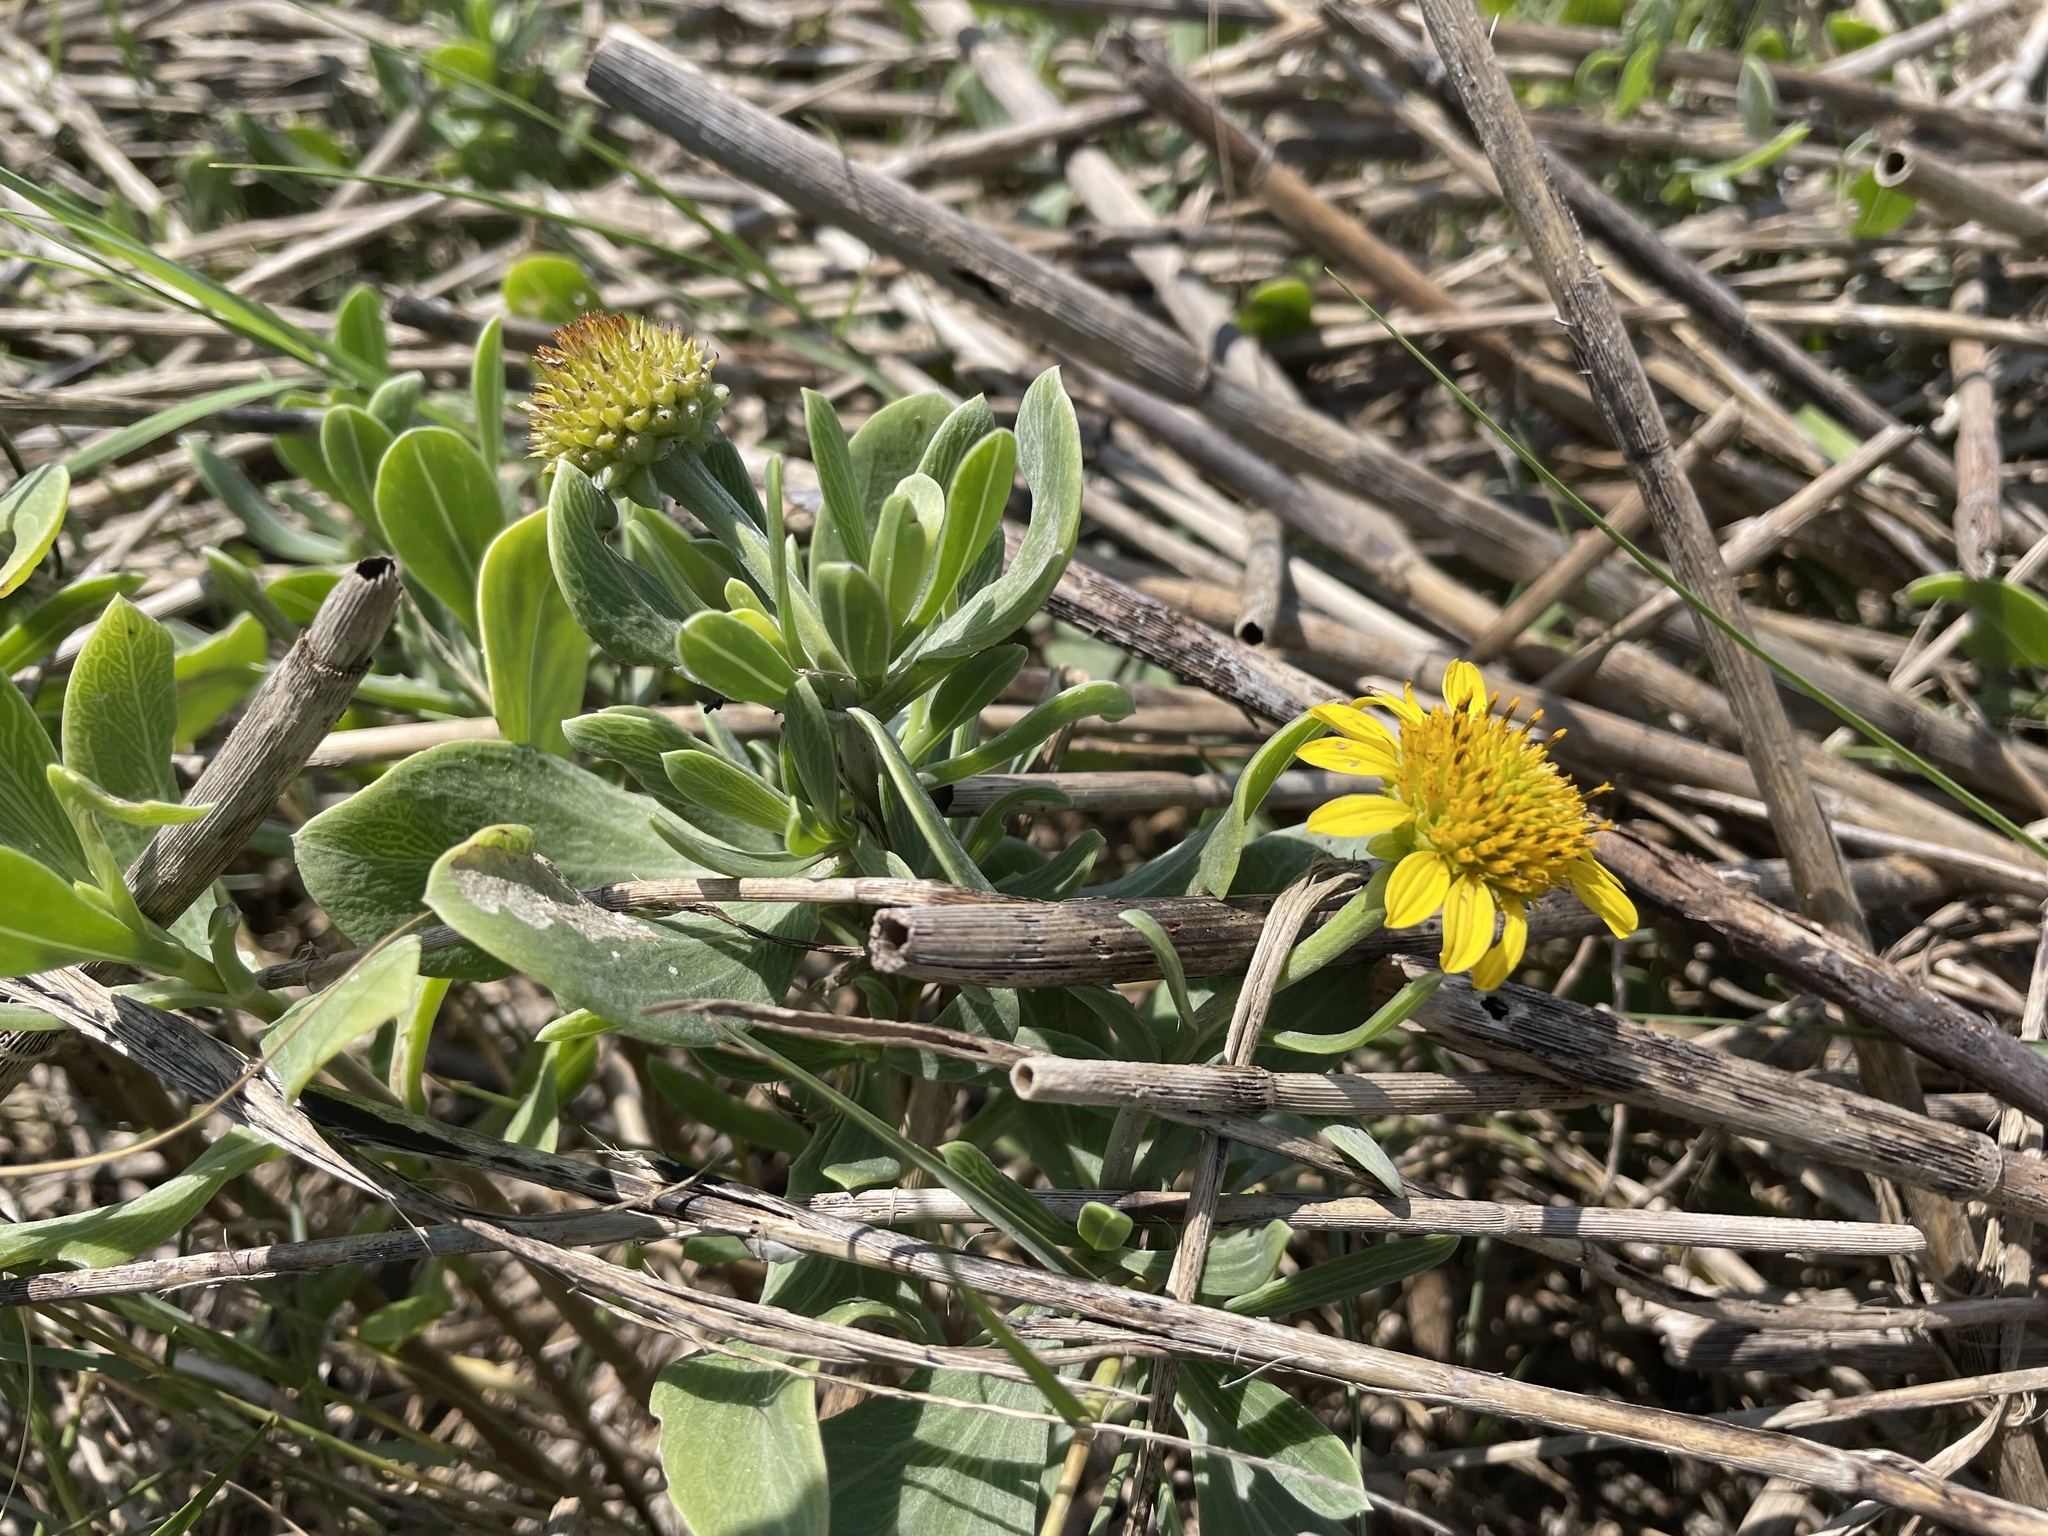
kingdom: Plantae
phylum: Tracheophyta
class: Magnoliopsida
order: Asterales
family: Asteraceae
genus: Borrichia
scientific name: Borrichia frutescens
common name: Sea oxeye
